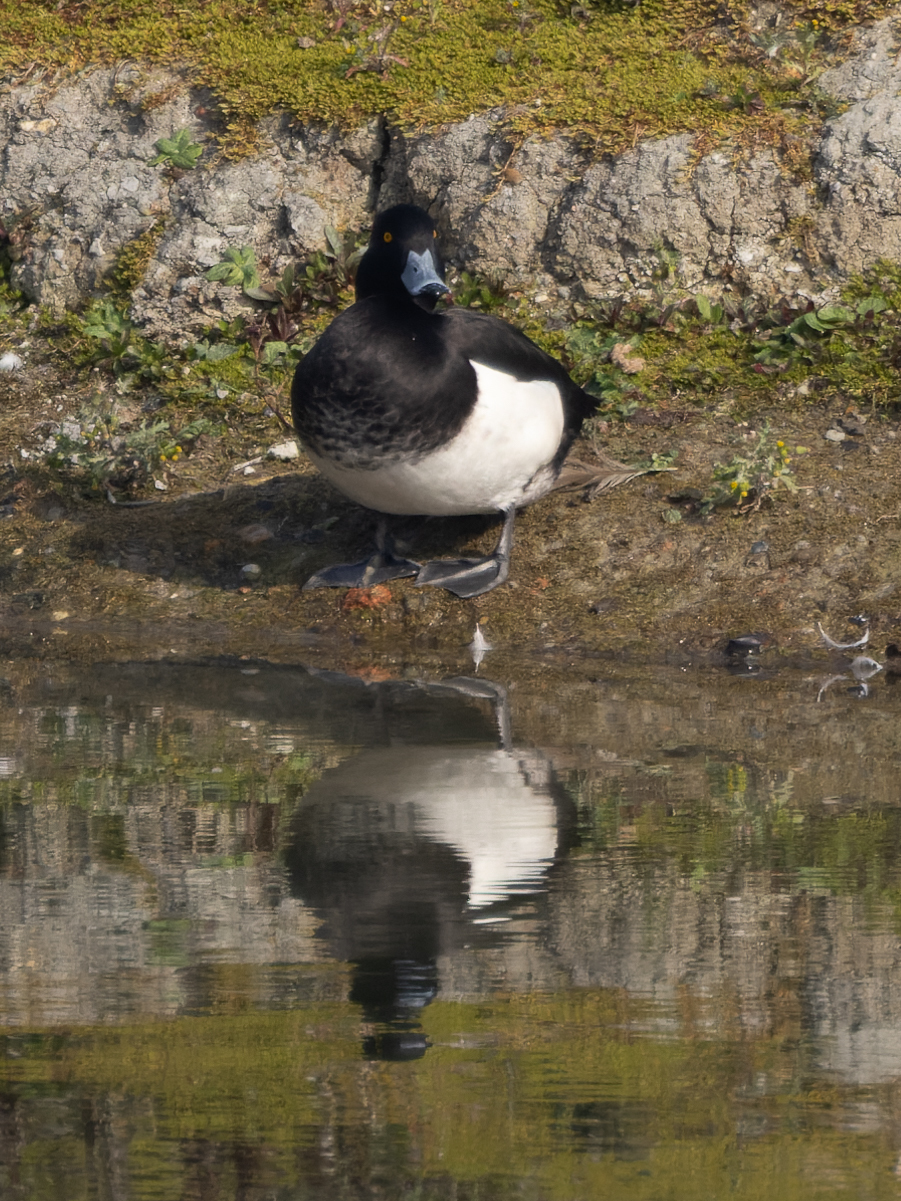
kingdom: Animalia
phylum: Chordata
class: Aves
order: Anseriformes
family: Anatidae
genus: Aythya
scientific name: Aythya fuligula
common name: Tufted duck
